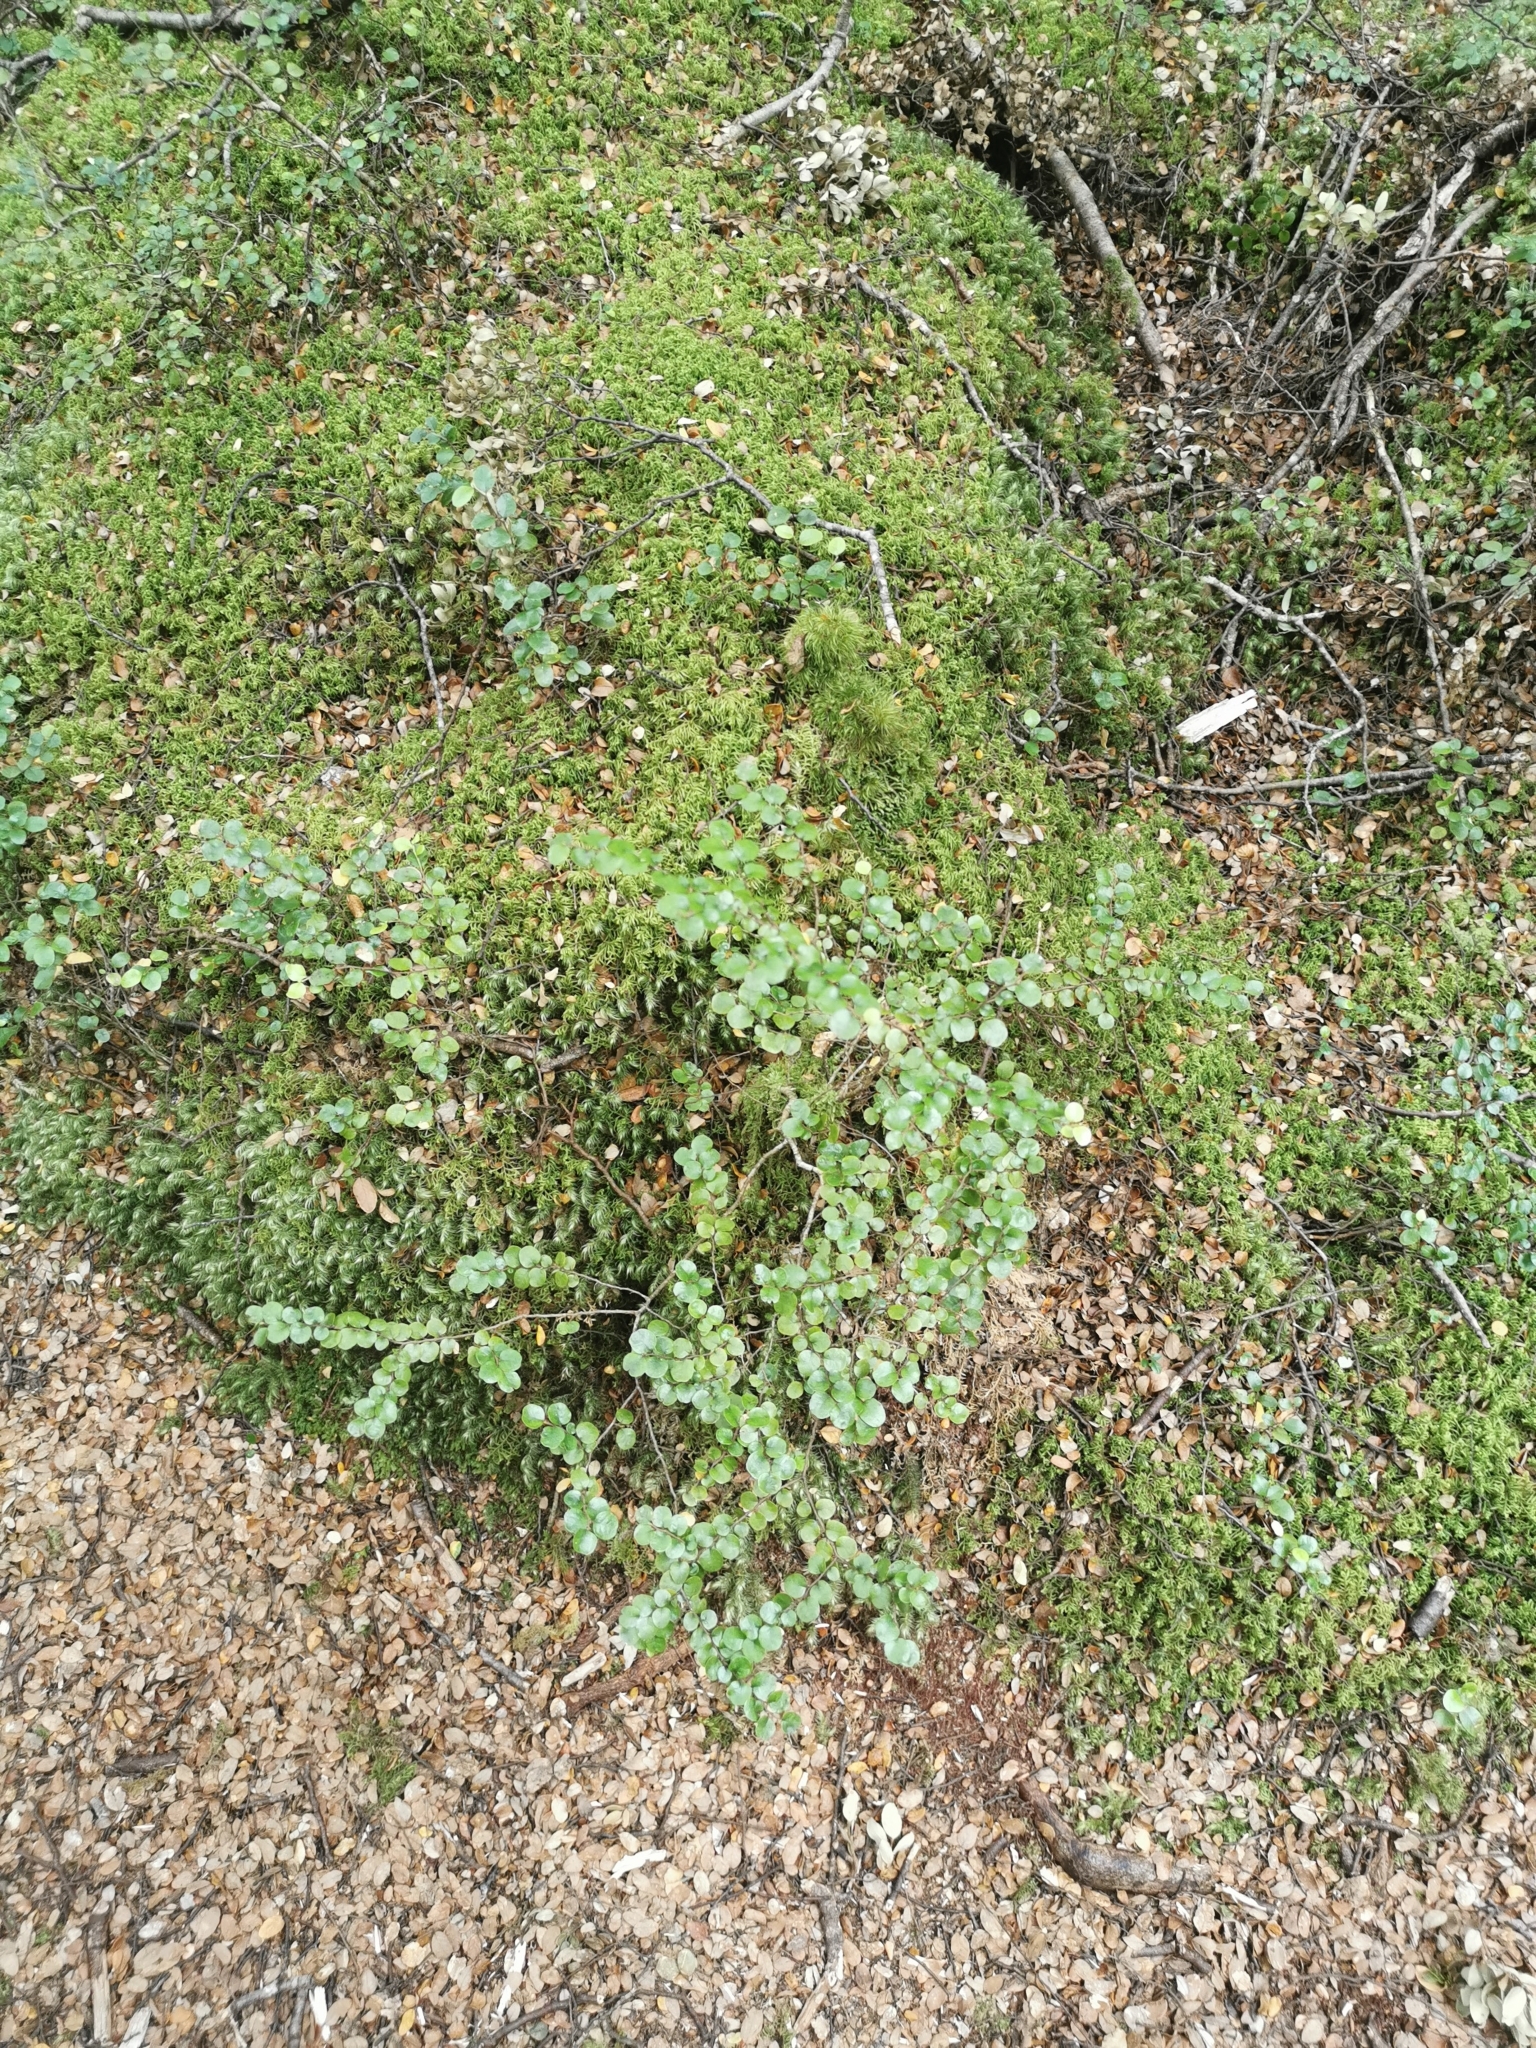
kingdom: Plantae
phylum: Tracheophyta
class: Magnoliopsida
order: Fagales
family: Nothofagaceae
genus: Nothofagus
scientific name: Nothofagus cliffortioides
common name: Mountain beech
